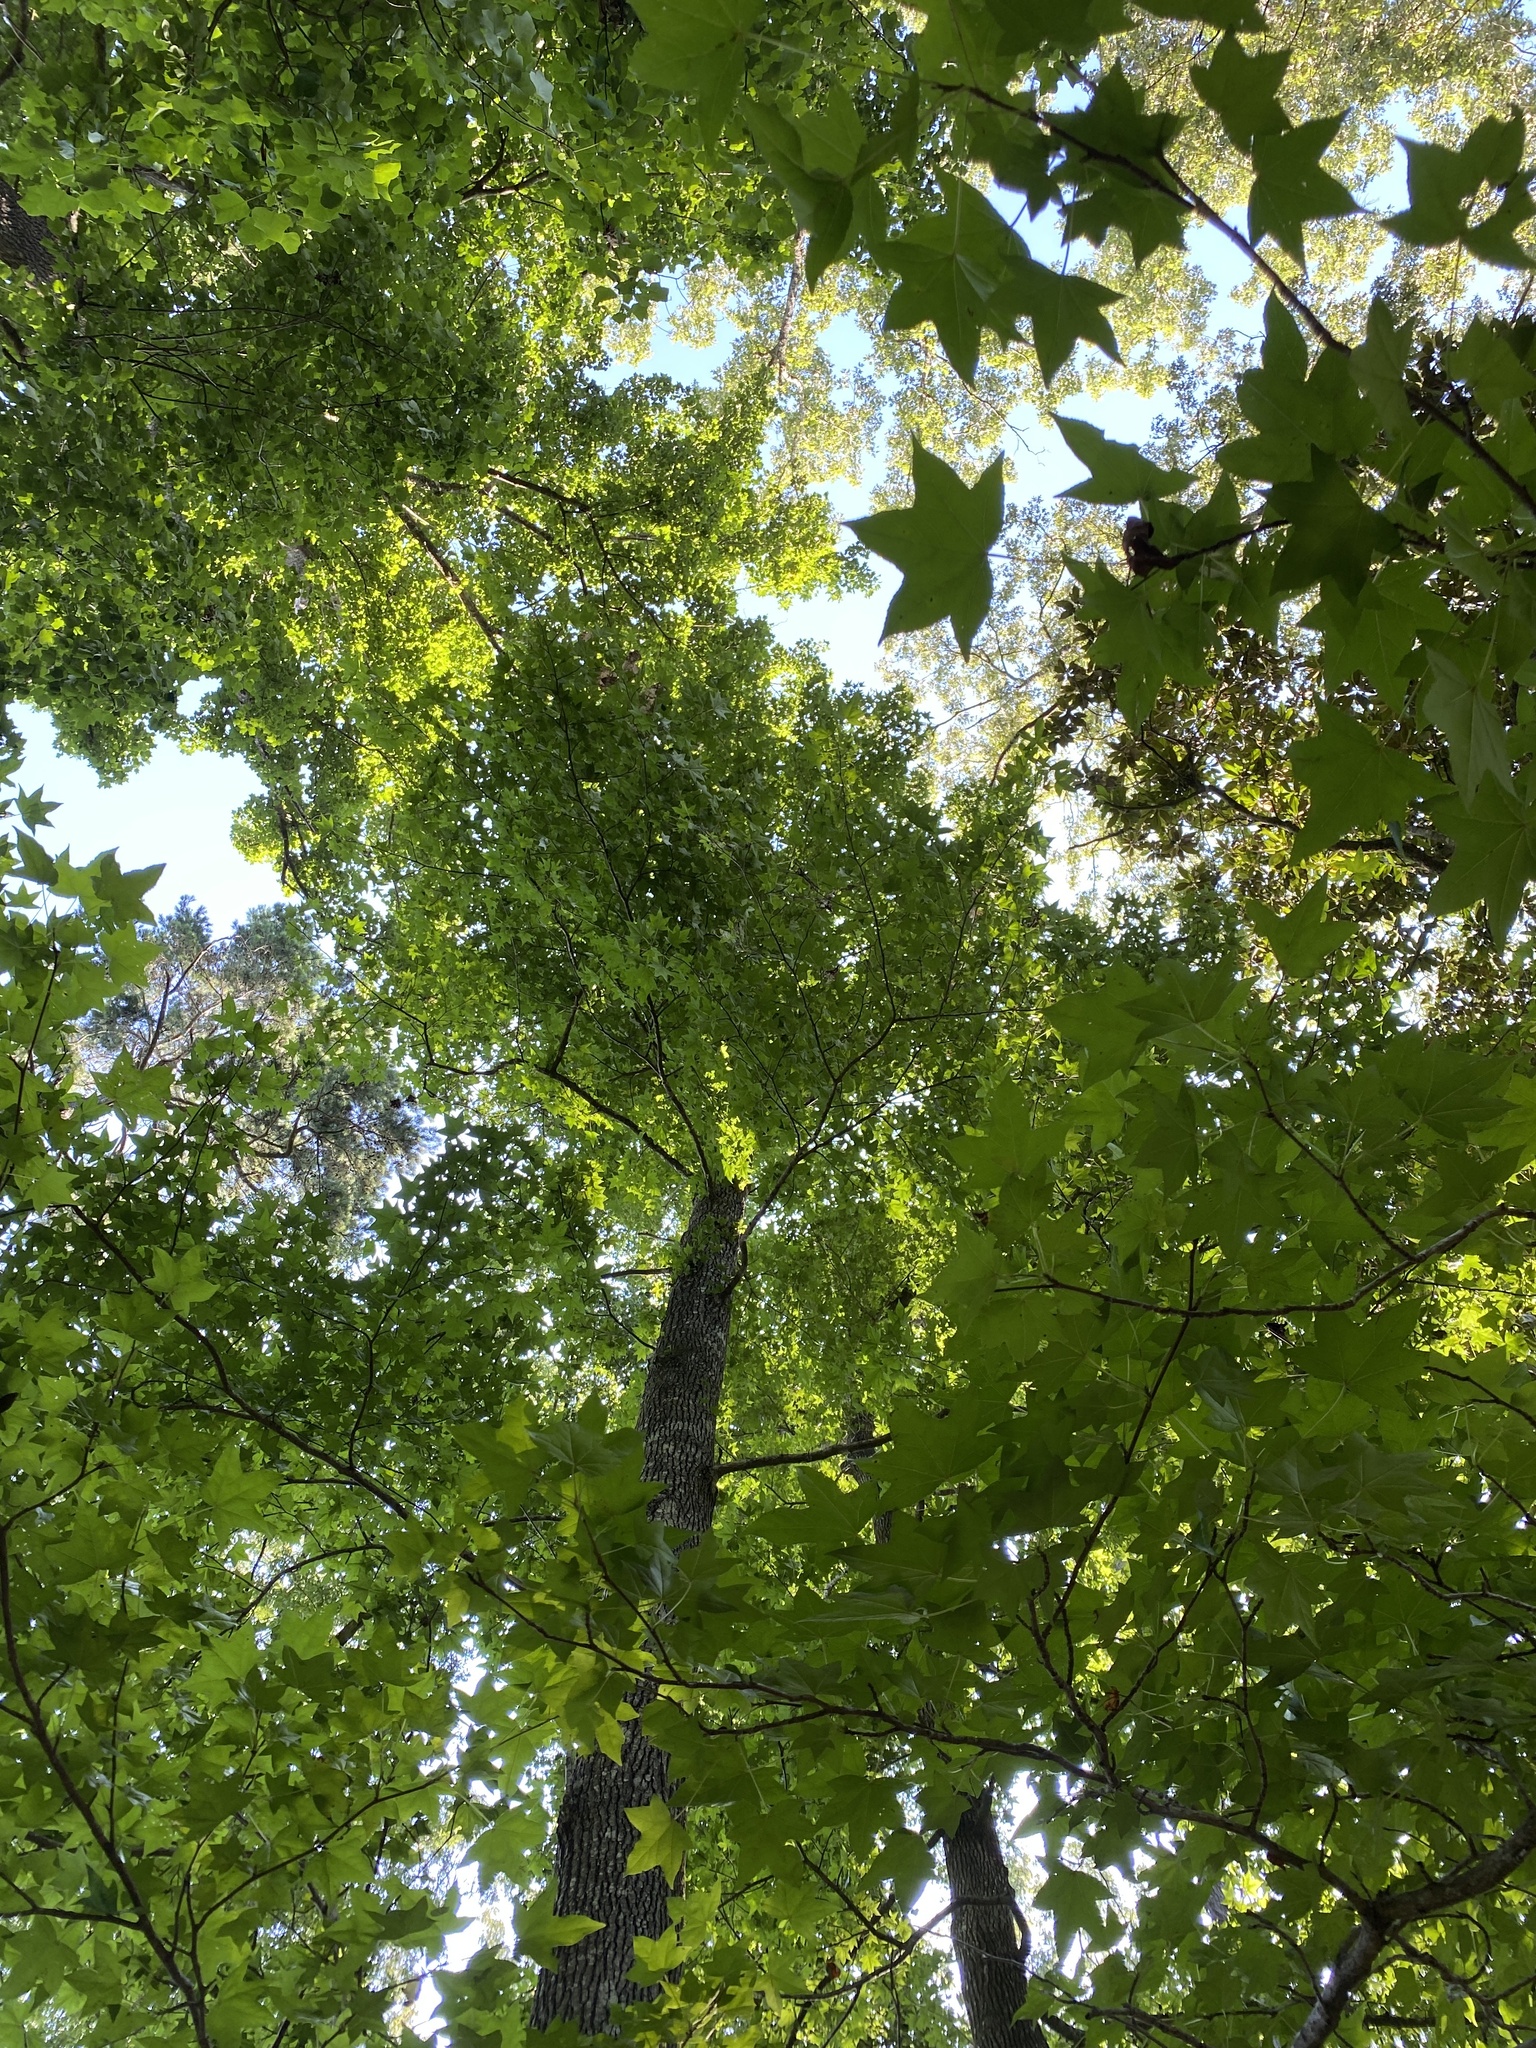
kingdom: Plantae
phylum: Tracheophyta
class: Magnoliopsida
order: Saxifragales
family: Altingiaceae
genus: Liquidambar
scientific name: Liquidambar styraciflua
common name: Sweet gum
